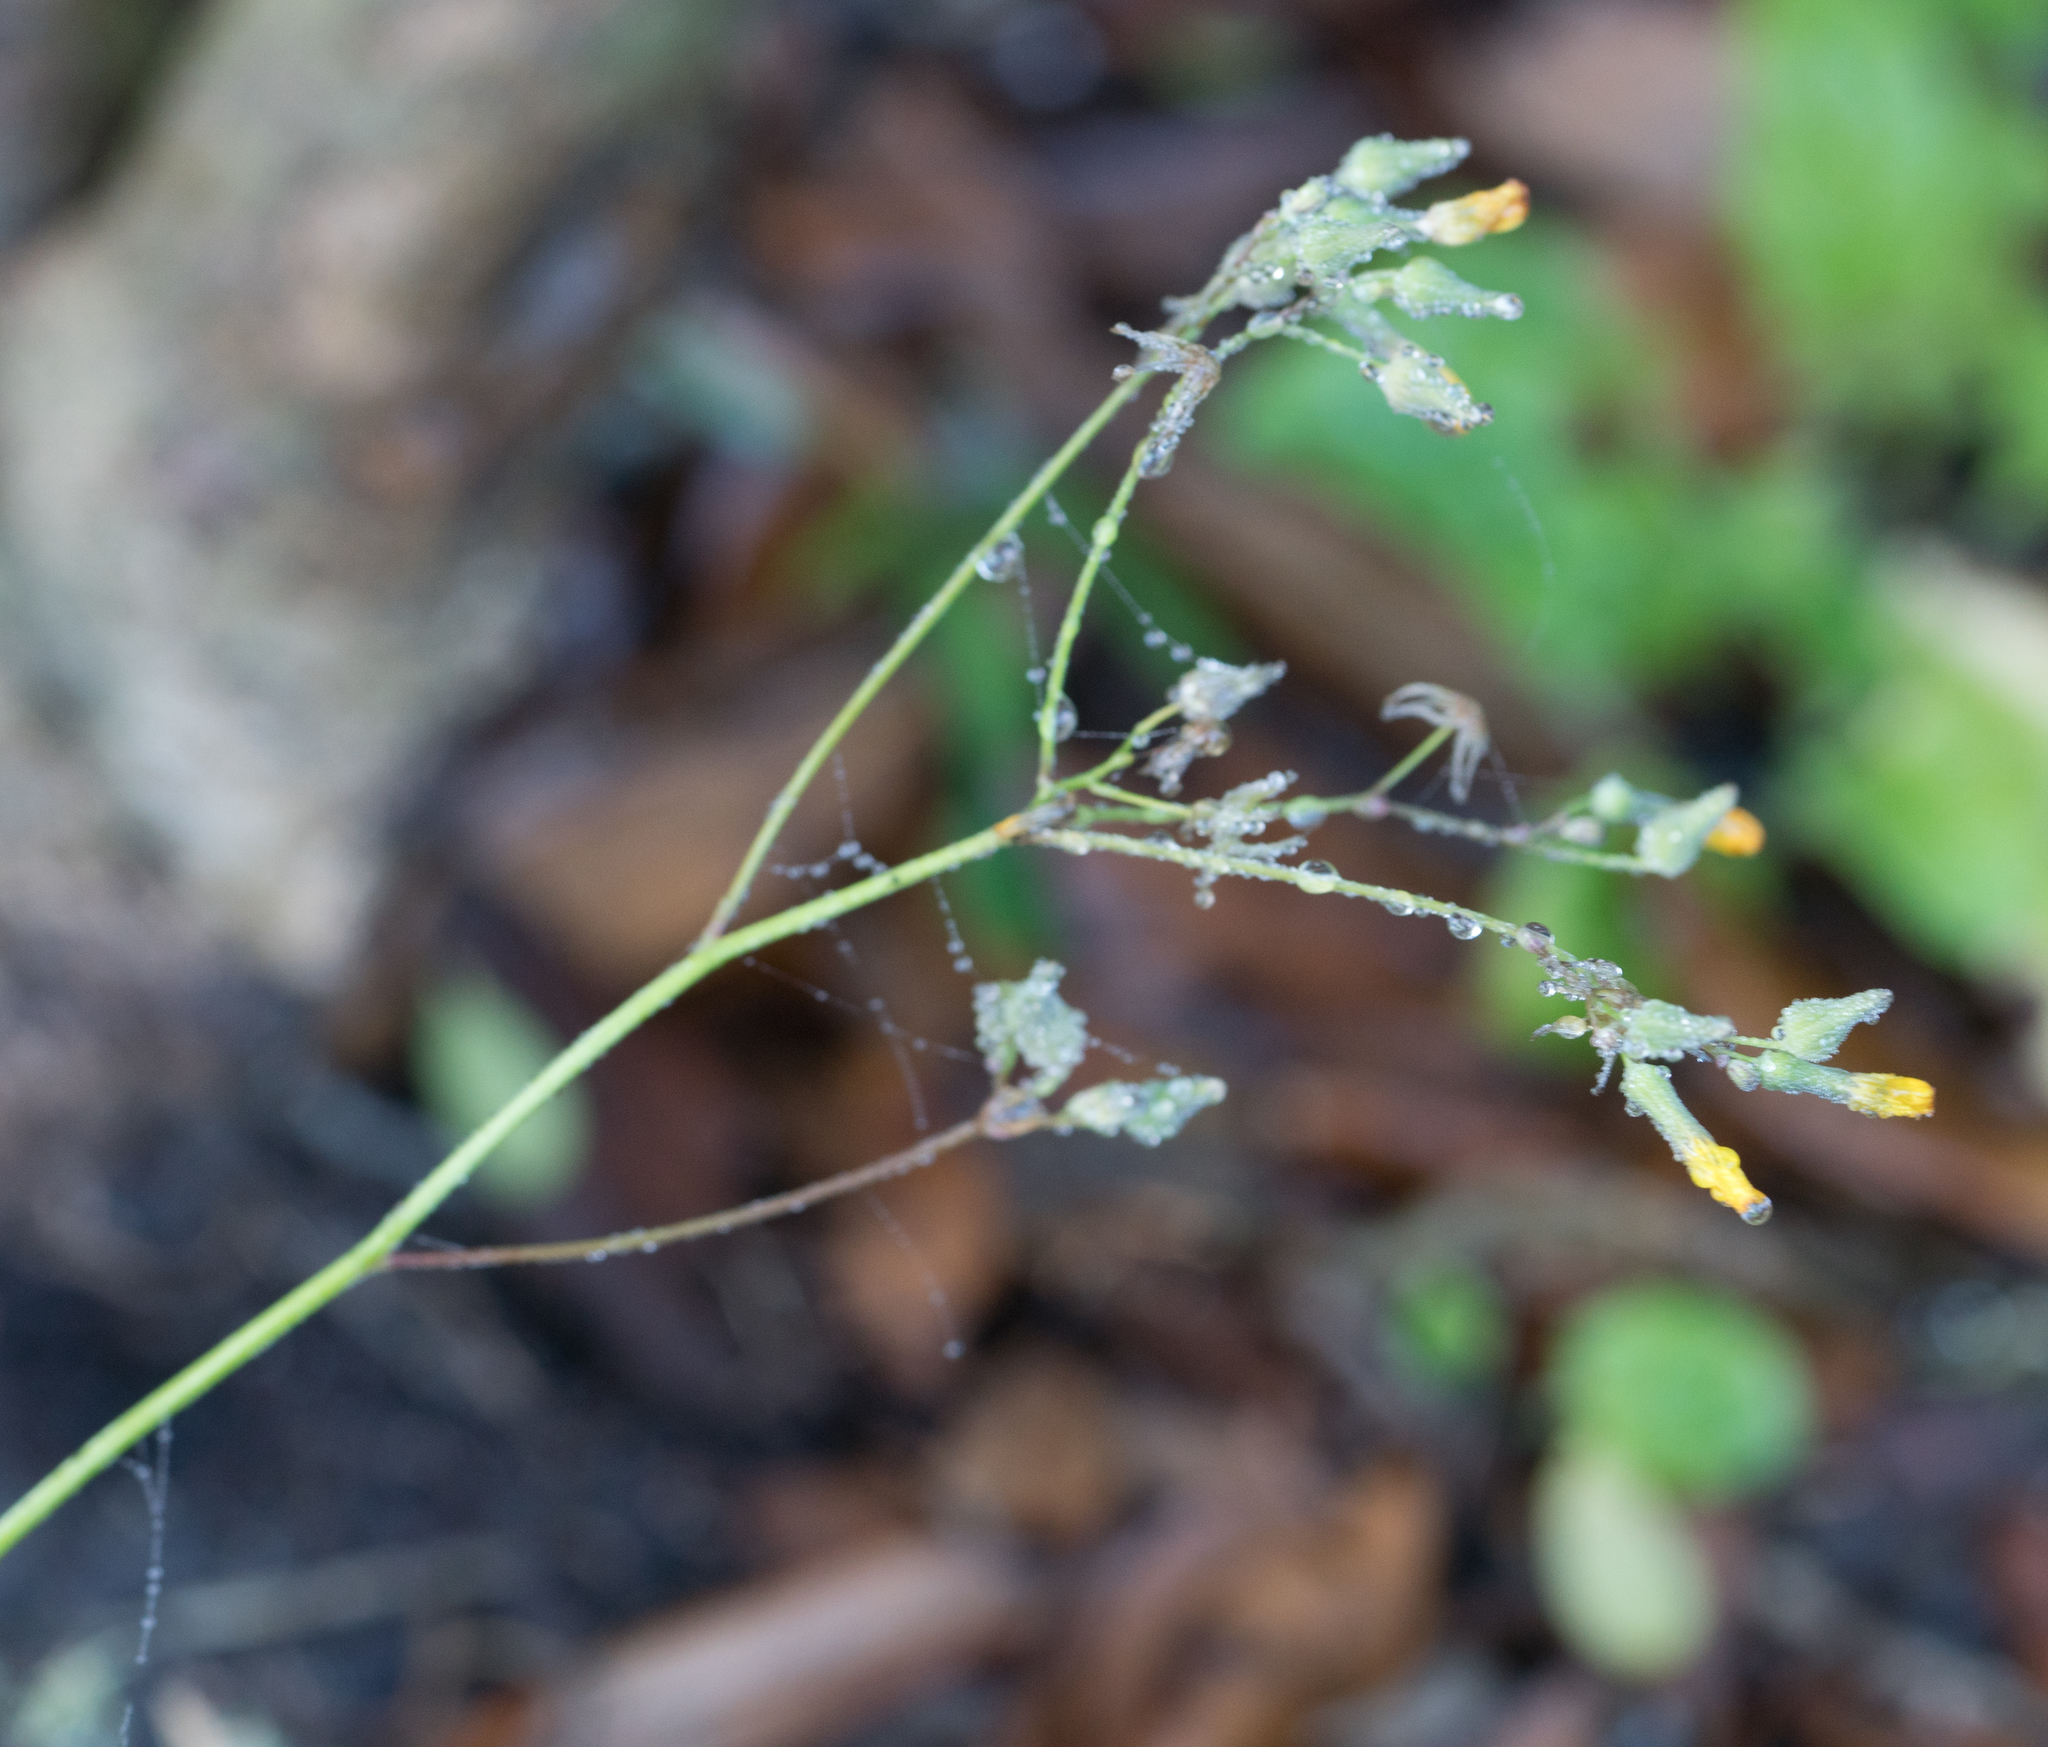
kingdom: Plantae
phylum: Tracheophyta
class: Magnoliopsida
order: Asterales
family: Asteraceae
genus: Youngia
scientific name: Youngia japonica
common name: Oriental false hawksbeard
